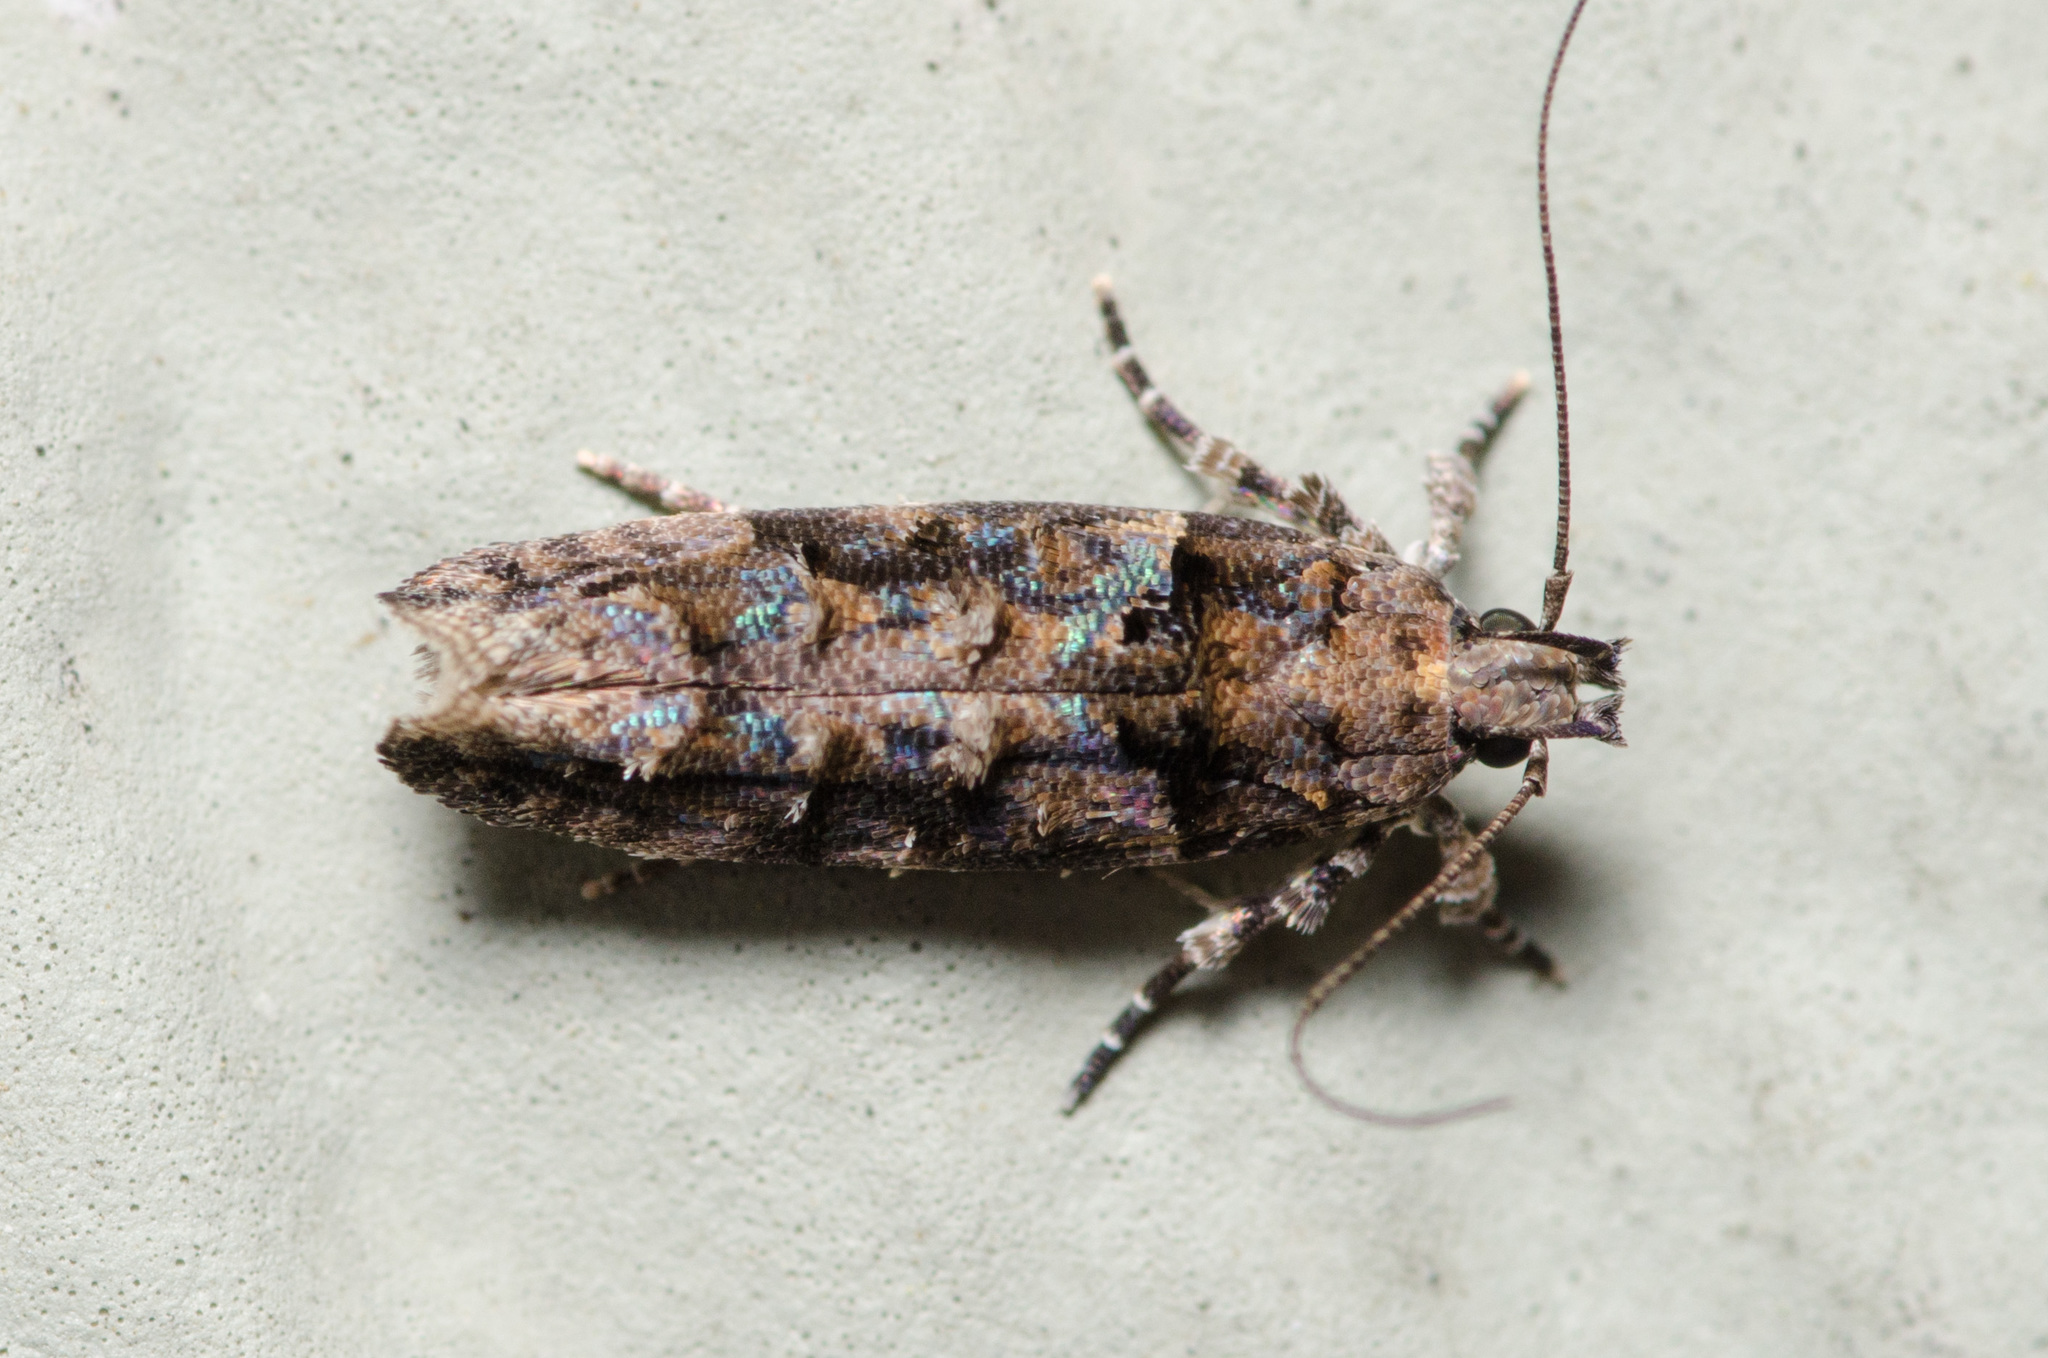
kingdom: Animalia
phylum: Arthropoda
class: Insecta
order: Lepidoptera
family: Gelechiidae
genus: Telphusa
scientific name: Telphusa perspicua
